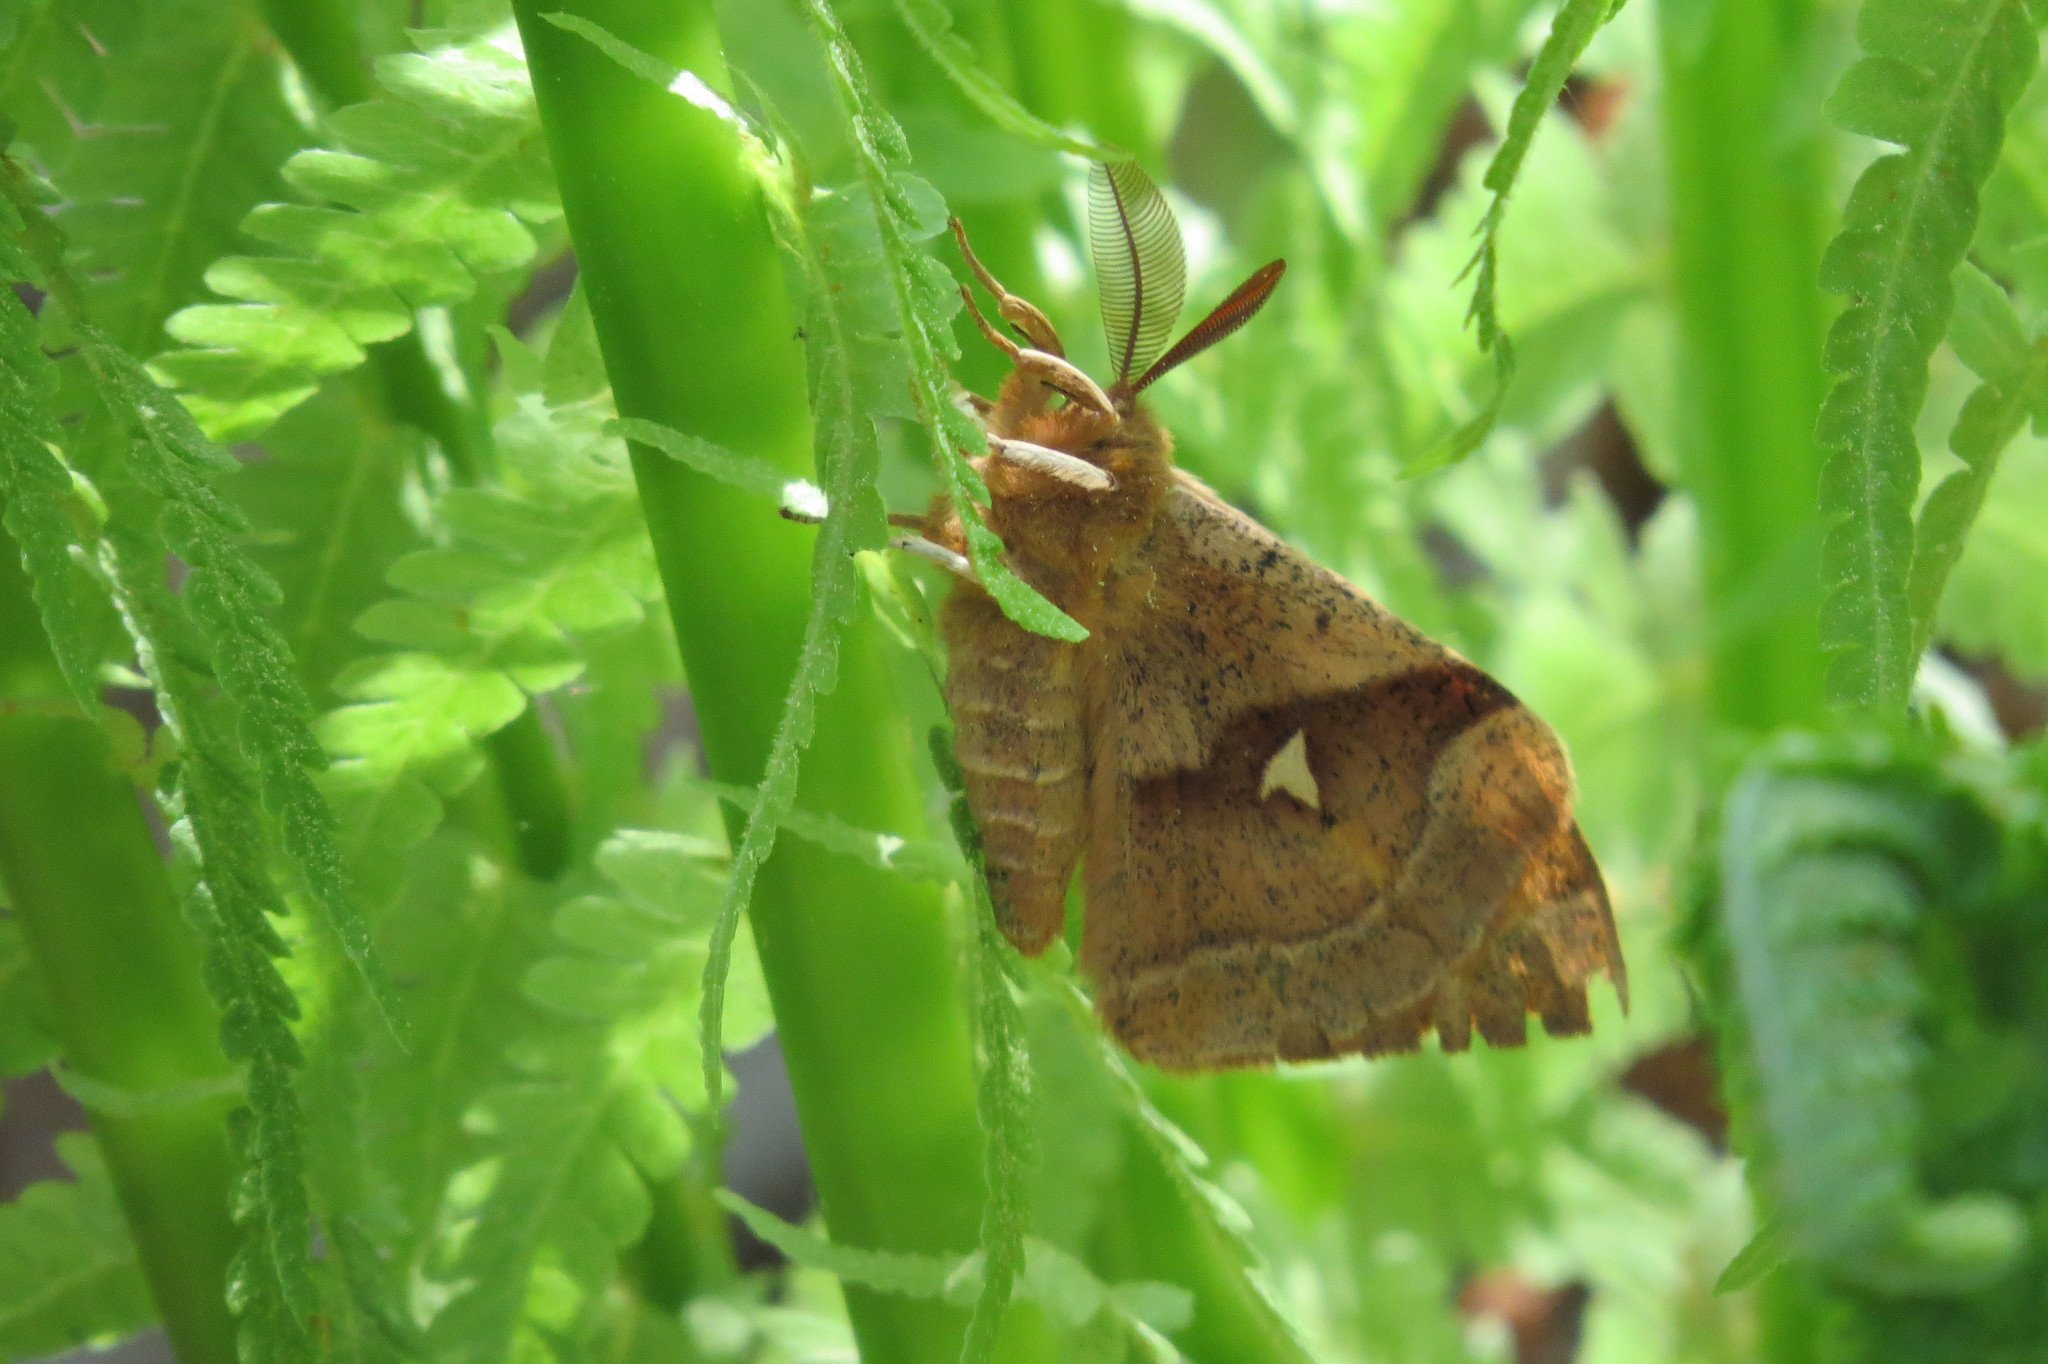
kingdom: Animalia
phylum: Arthropoda
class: Insecta
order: Lepidoptera
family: Saturniidae
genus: Aglia
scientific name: Aglia tau
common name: Tau emperor
